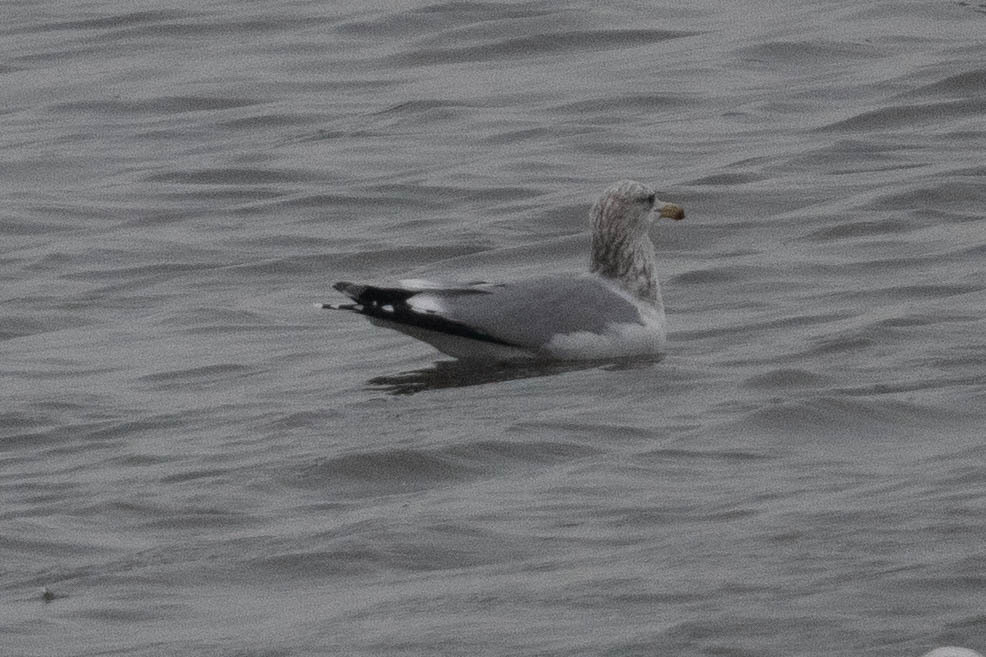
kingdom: Animalia
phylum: Chordata
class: Aves
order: Charadriiformes
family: Laridae
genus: Larus
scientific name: Larus californicus
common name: California gull
